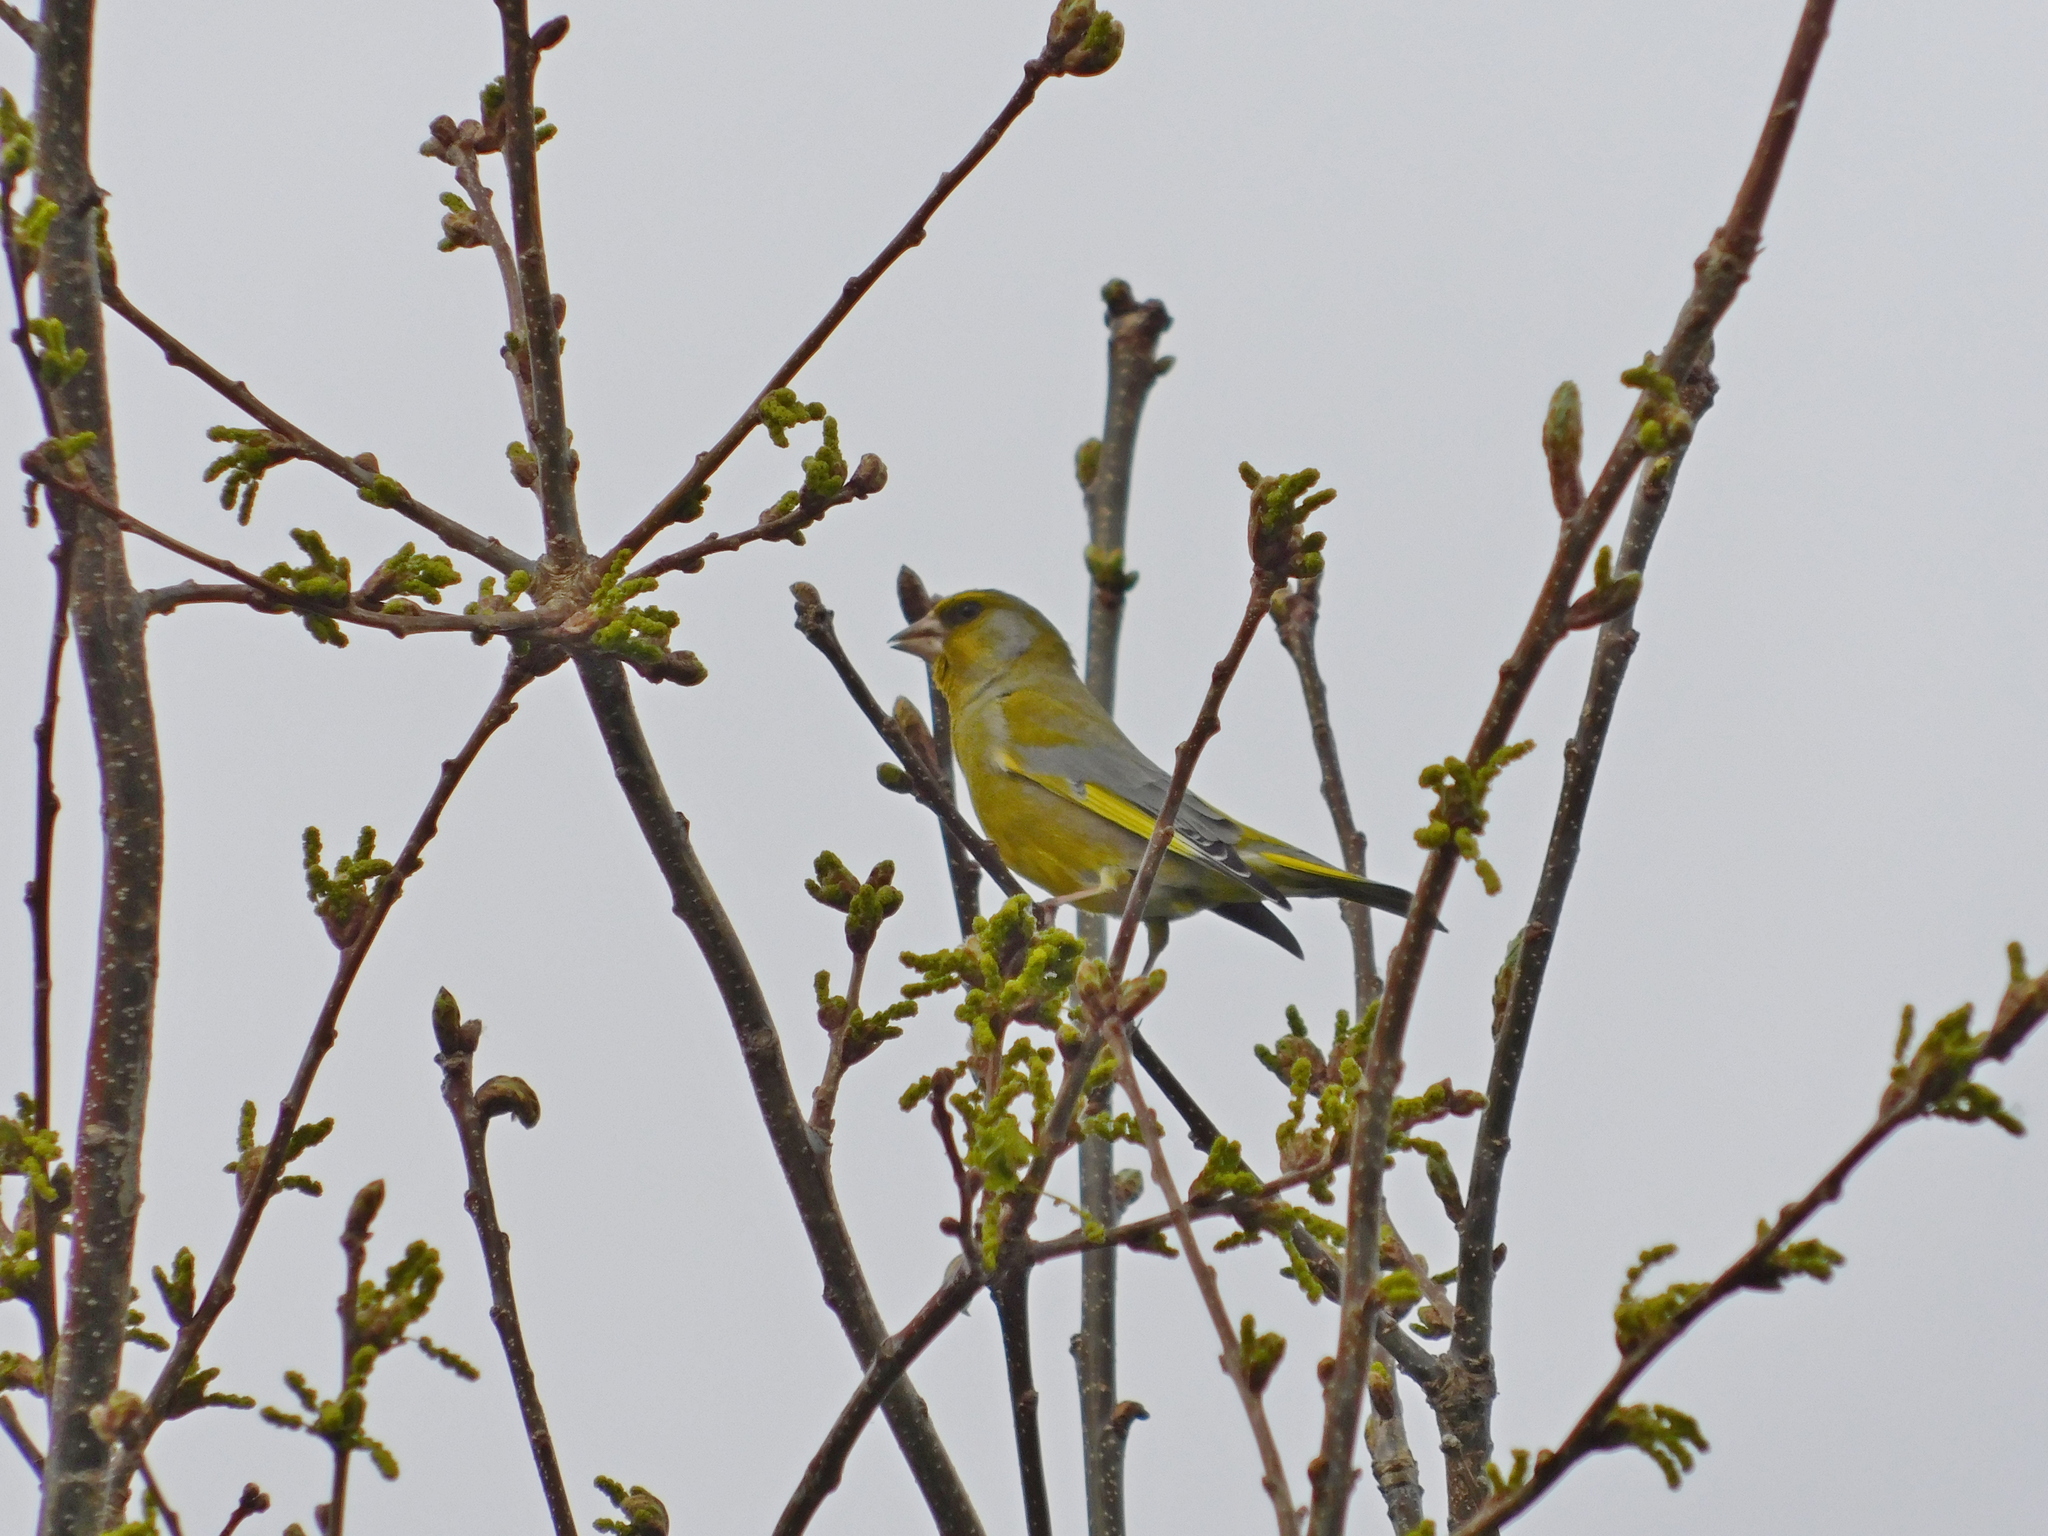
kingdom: Plantae
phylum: Tracheophyta
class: Liliopsida
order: Poales
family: Poaceae
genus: Chloris
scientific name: Chloris chloris
